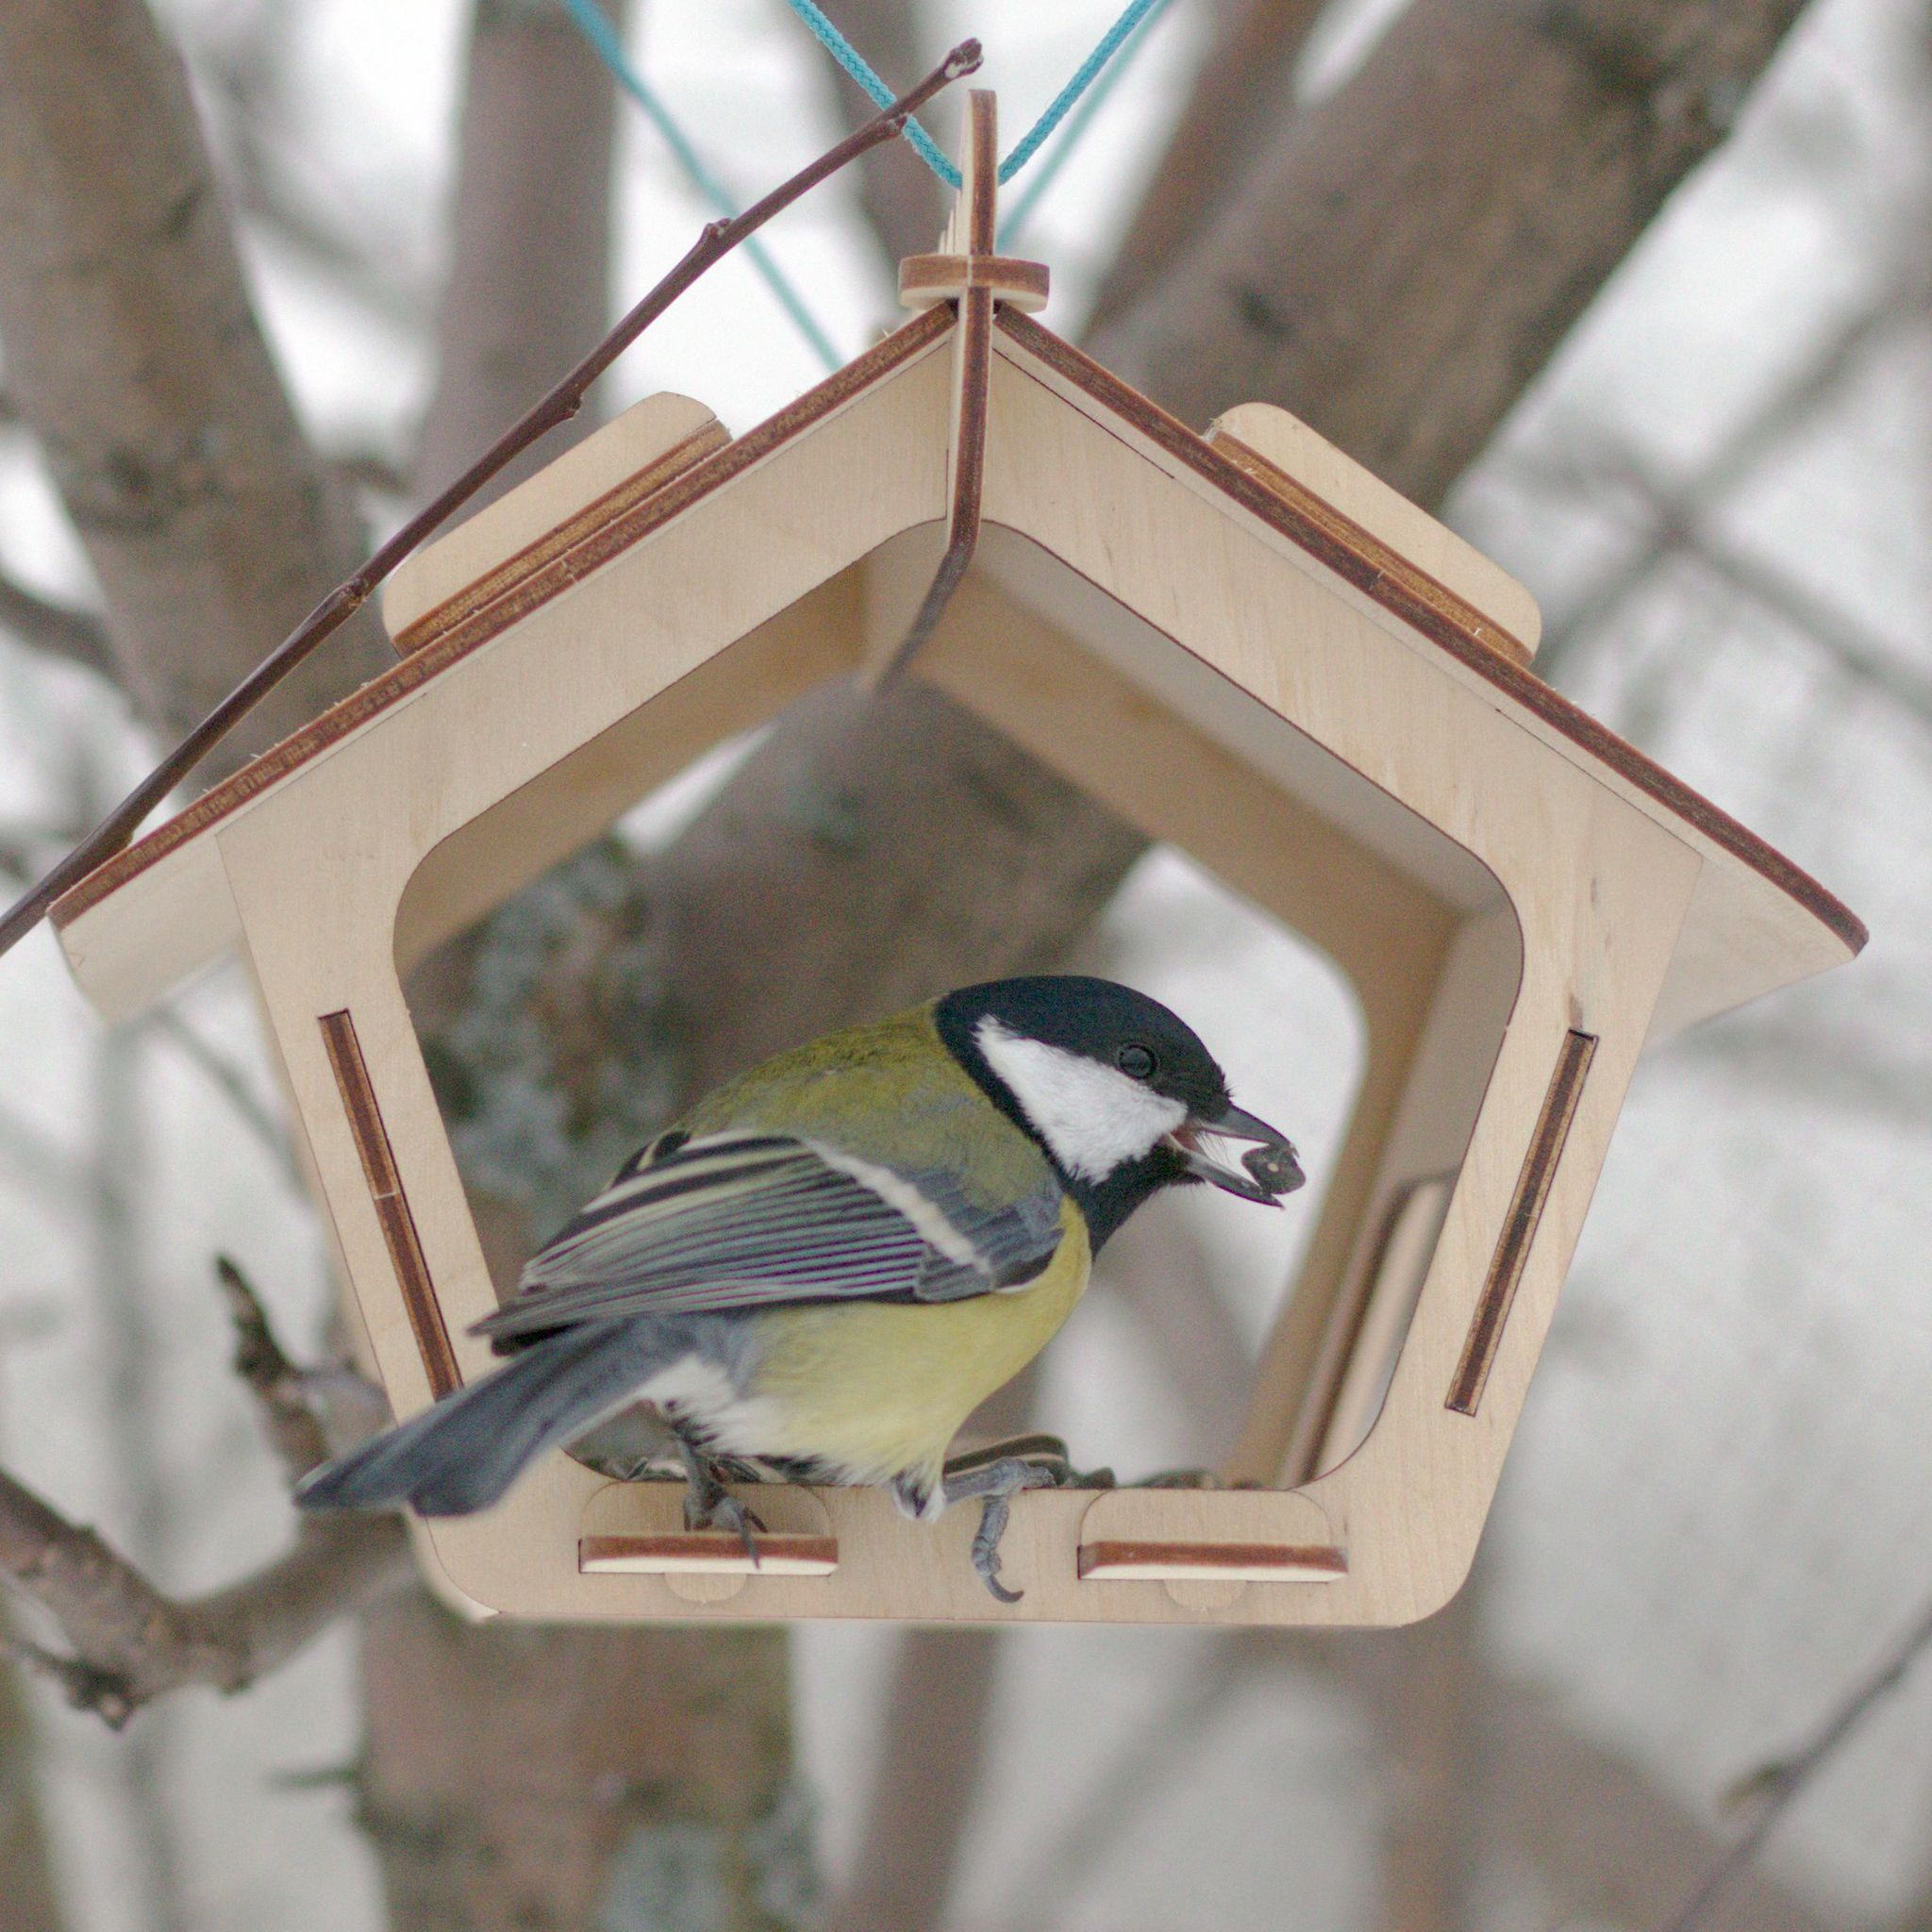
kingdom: Animalia
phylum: Chordata
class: Aves
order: Passeriformes
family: Paridae
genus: Parus
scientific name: Parus major
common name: Great tit
